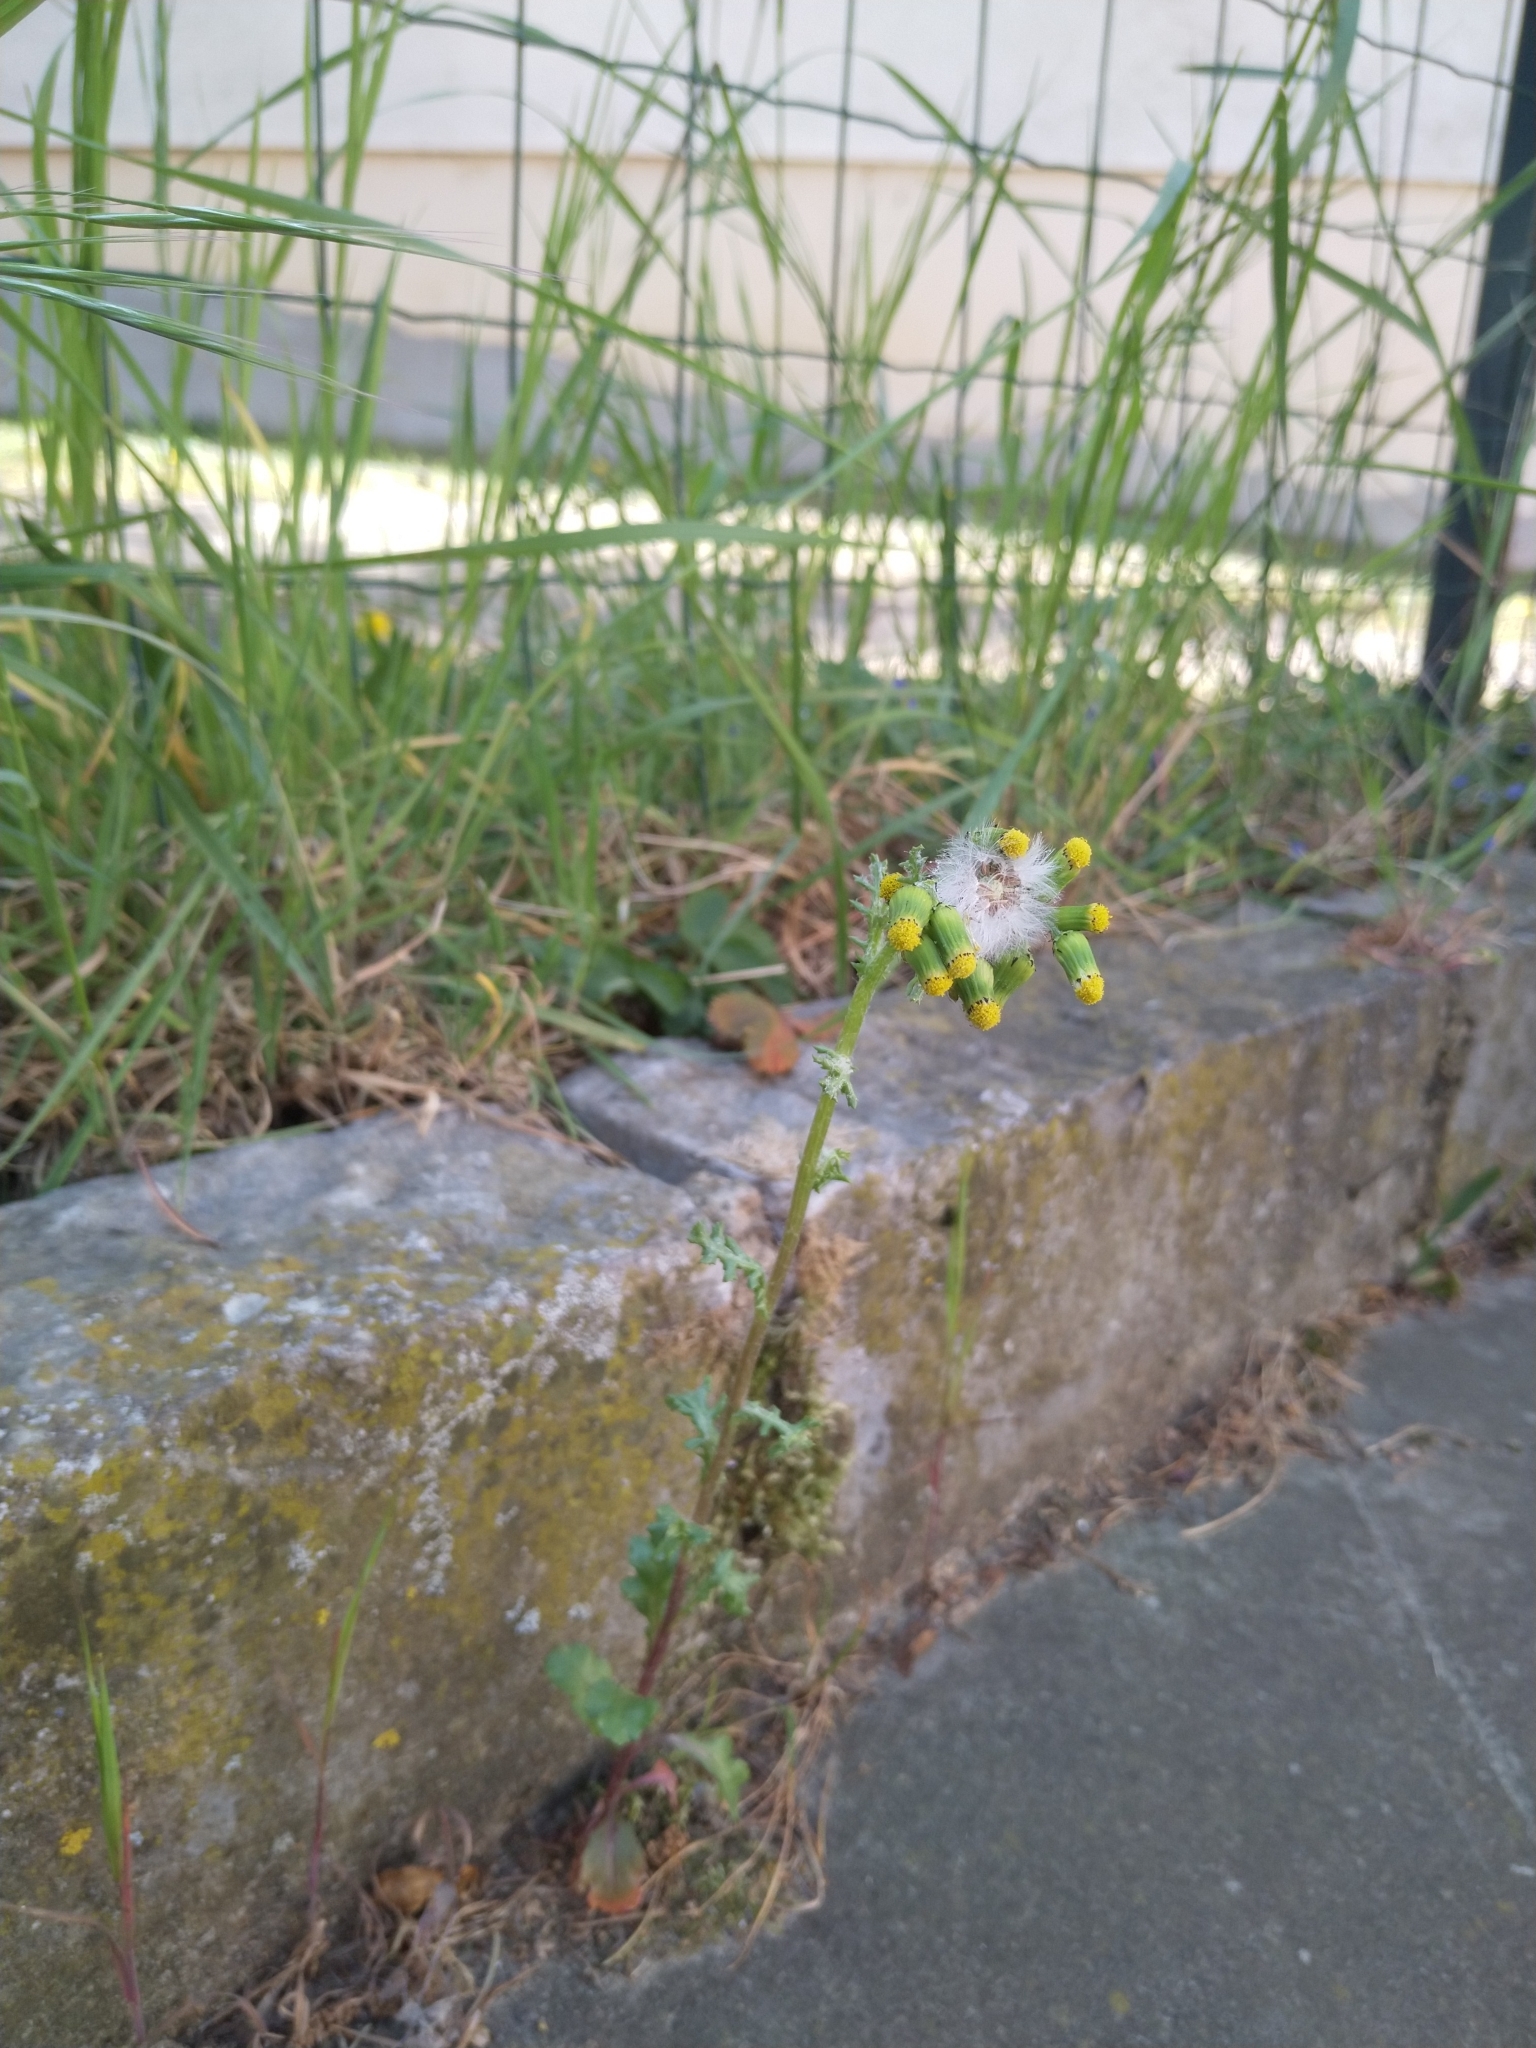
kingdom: Plantae
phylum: Tracheophyta
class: Magnoliopsida
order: Asterales
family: Asteraceae
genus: Senecio
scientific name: Senecio vulgaris
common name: Old-man-in-the-spring
